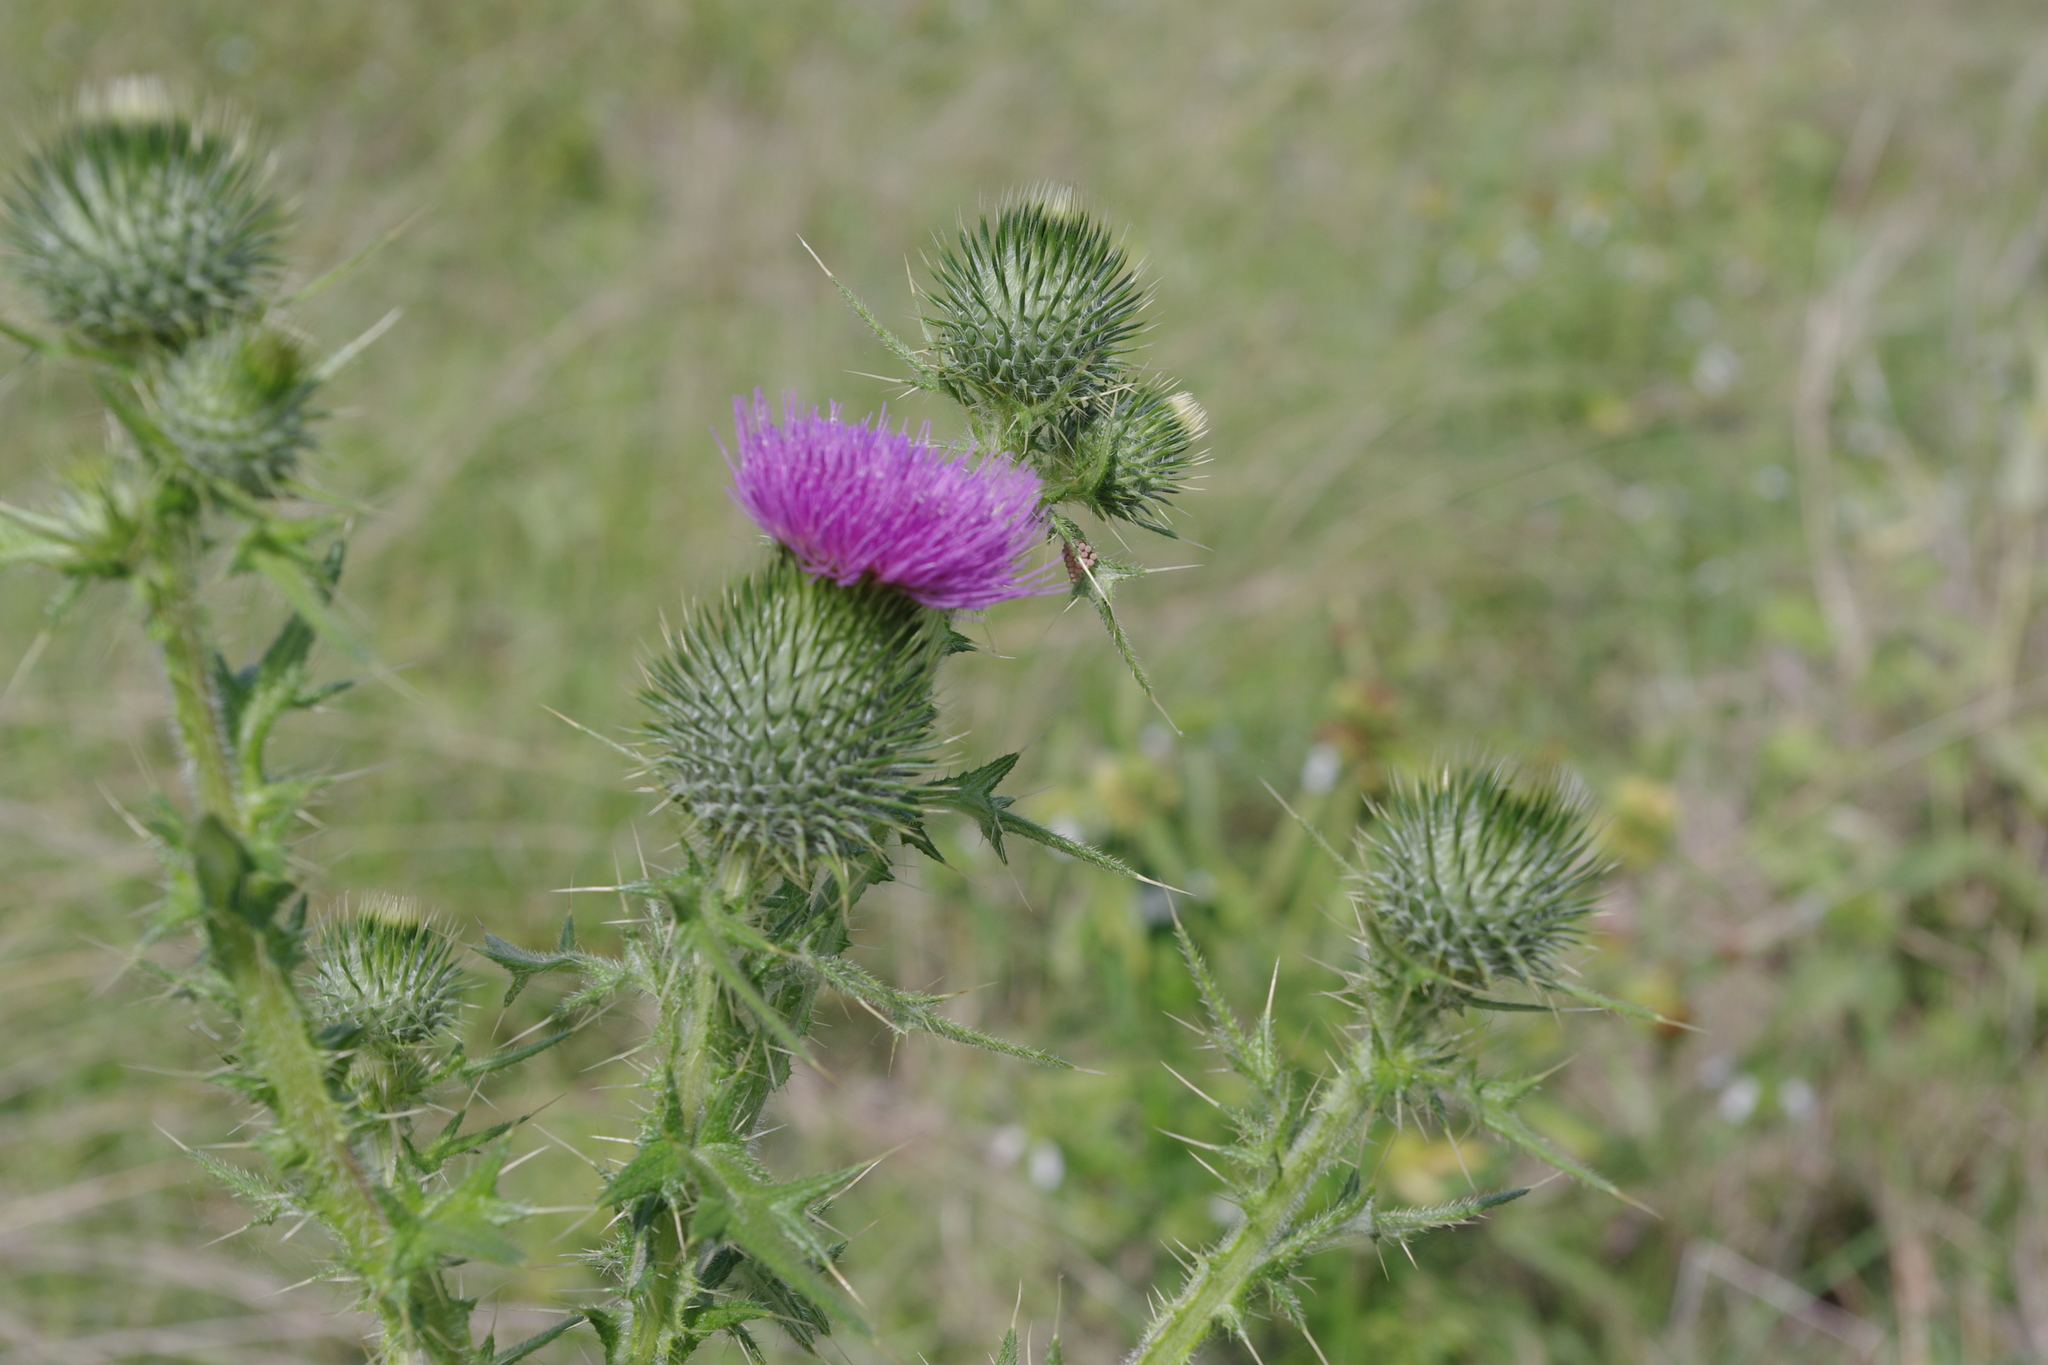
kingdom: Plantae
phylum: Tracheophyta
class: Magnoliopsida
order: Asterales
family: Asteraceae
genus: Cirsium
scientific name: Cirsium vulgare
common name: Bull thistle
